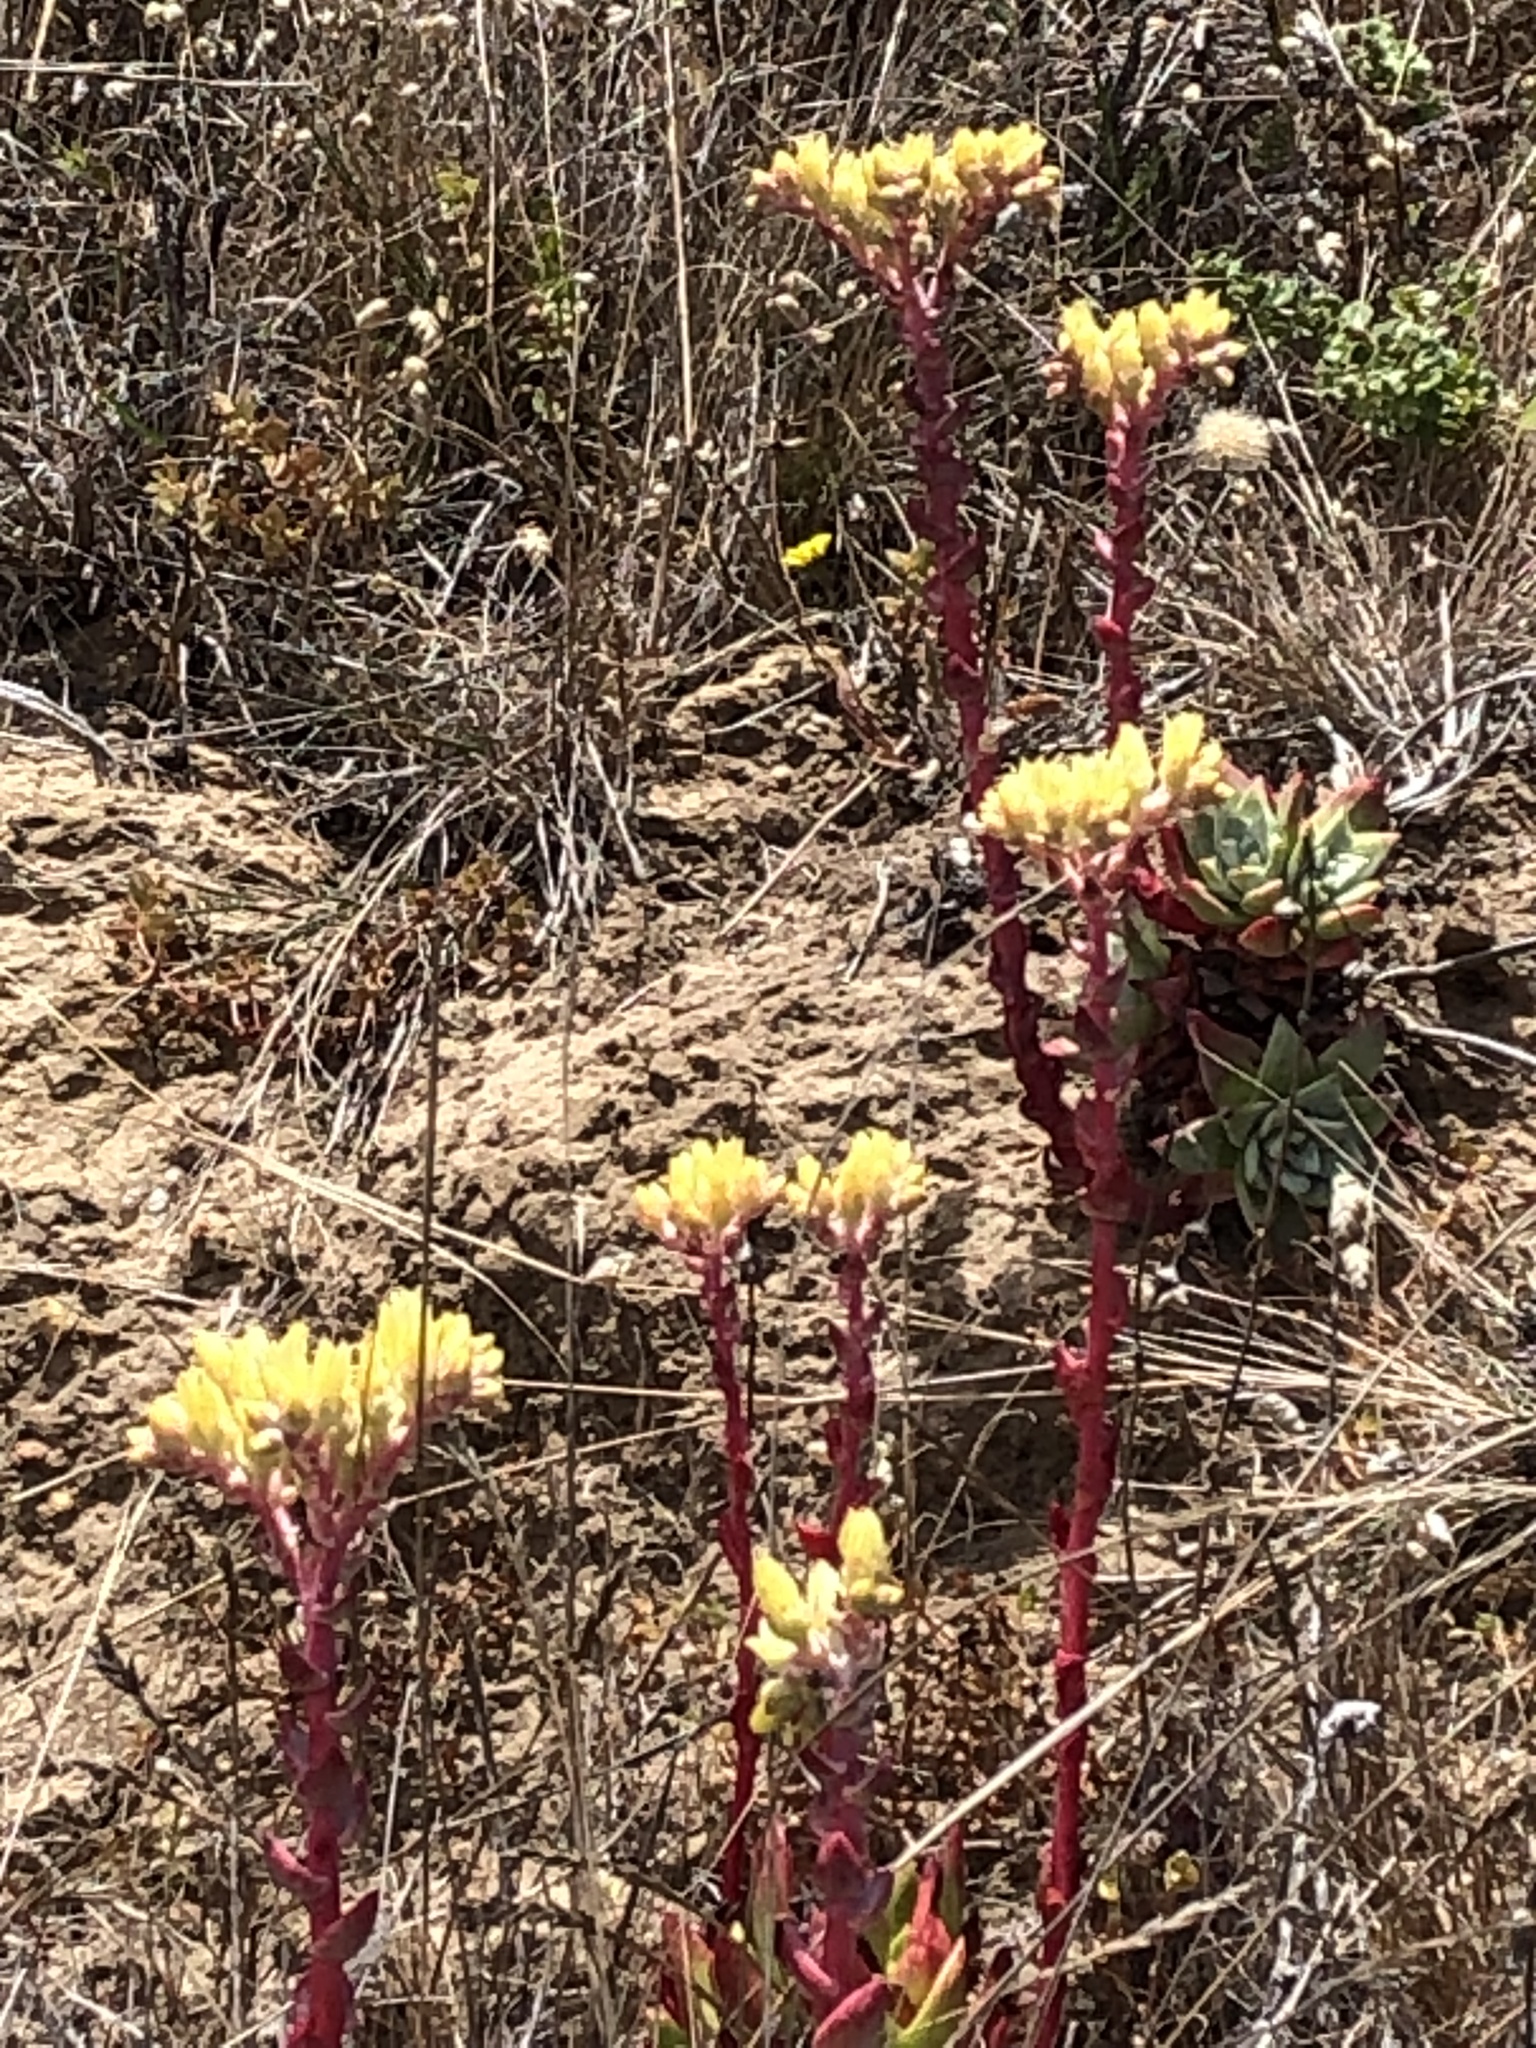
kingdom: Plantae
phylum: Tracheophyta
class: Magnoliopsida
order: Saxifragales
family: Crassulaceae
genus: Dudleya
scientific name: Dudleya farinosa
